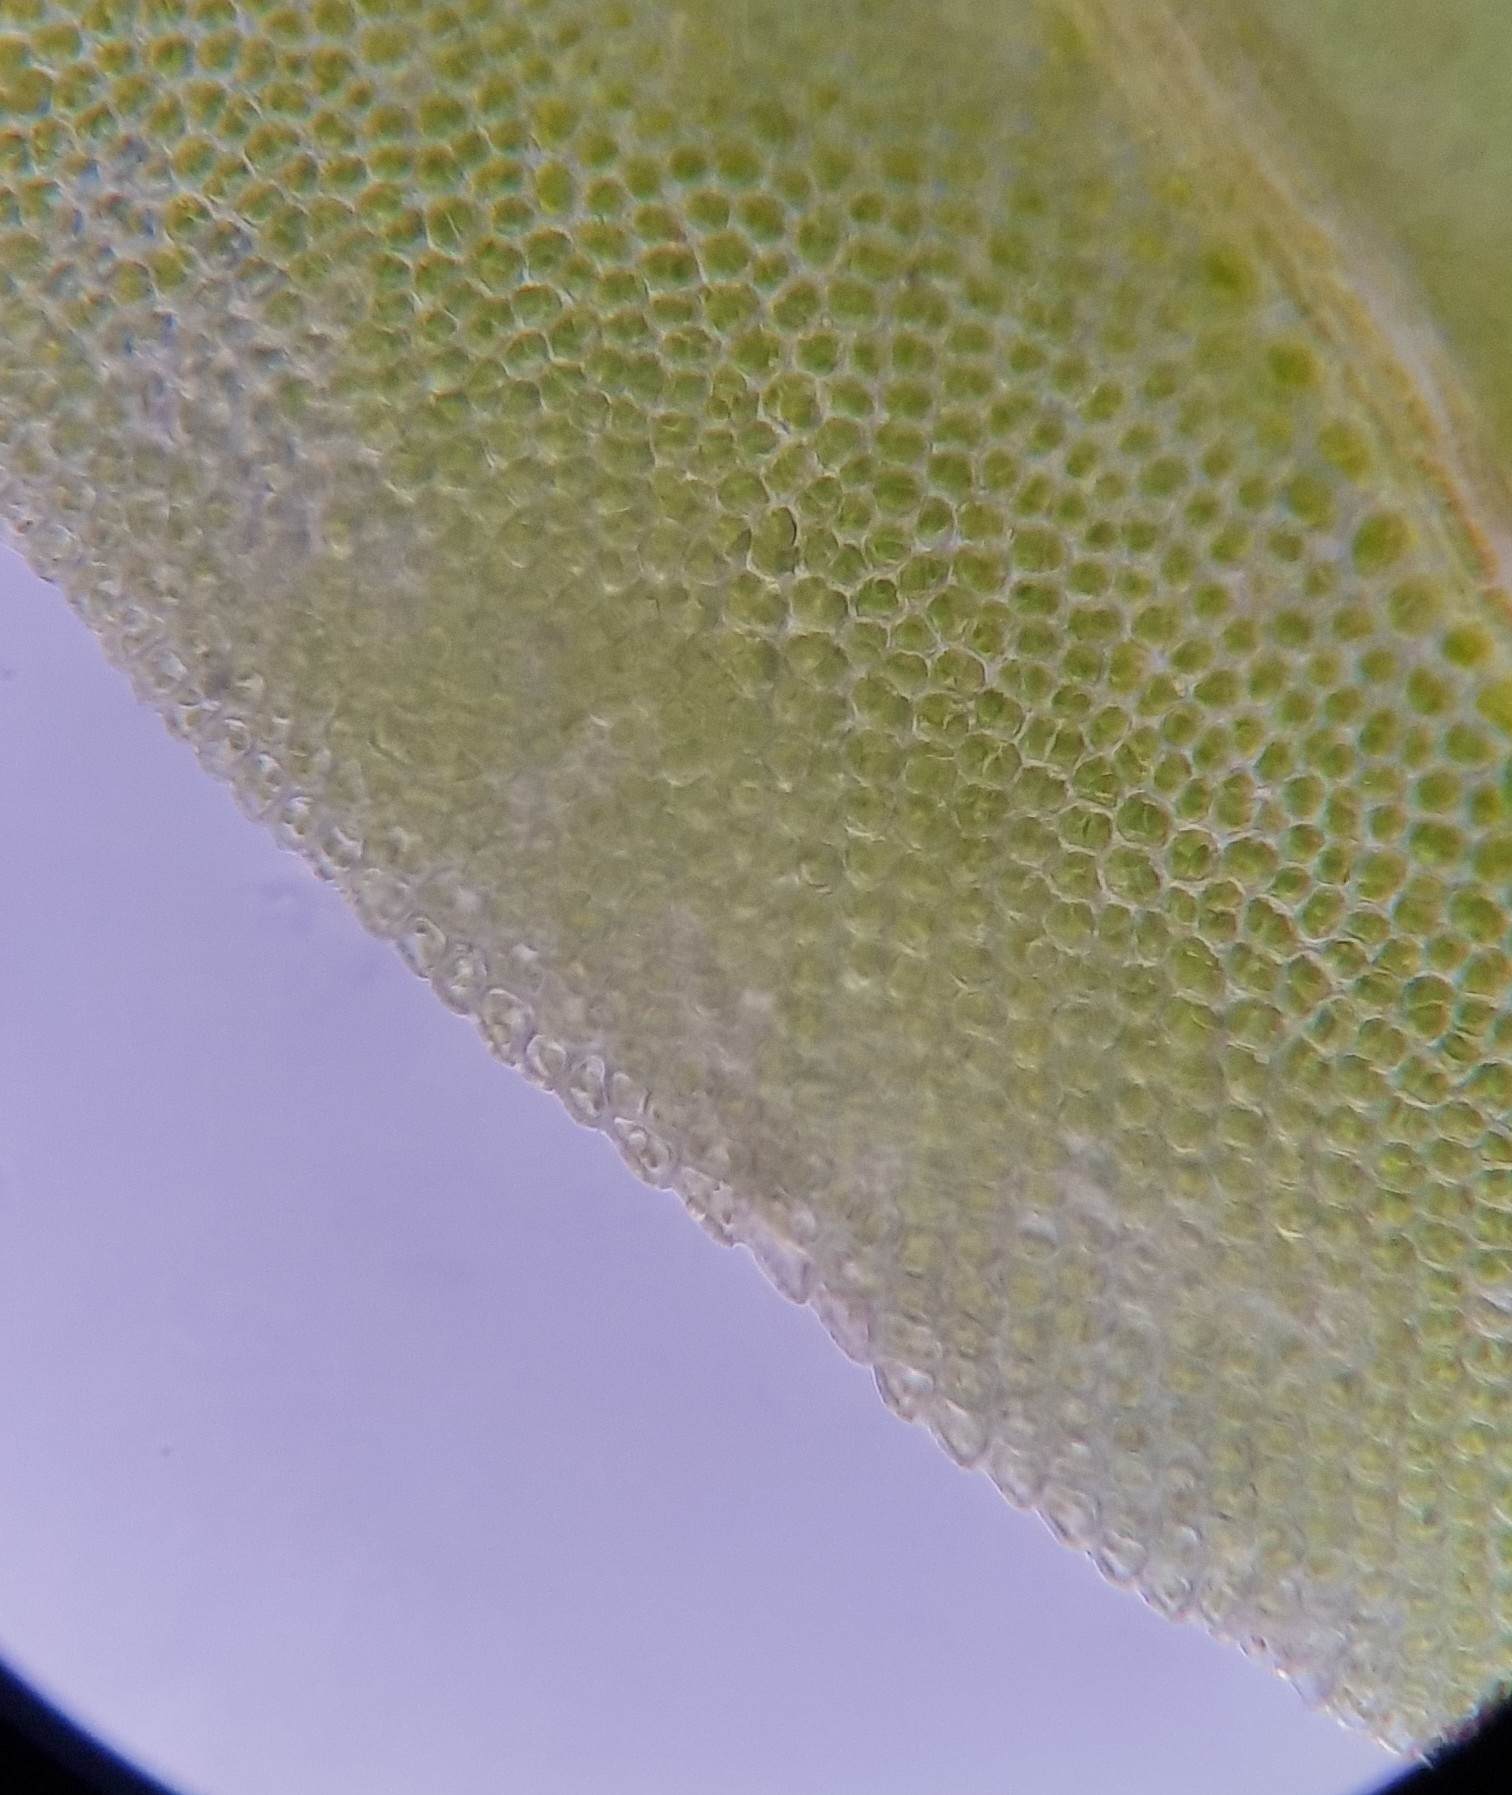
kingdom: Plantae
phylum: Bryophyta
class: Bryopsida
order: Dicranales
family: Fissidentaceae
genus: Fissidens
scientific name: Fissidens taxifolius
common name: Yew-leaved pocket moss
